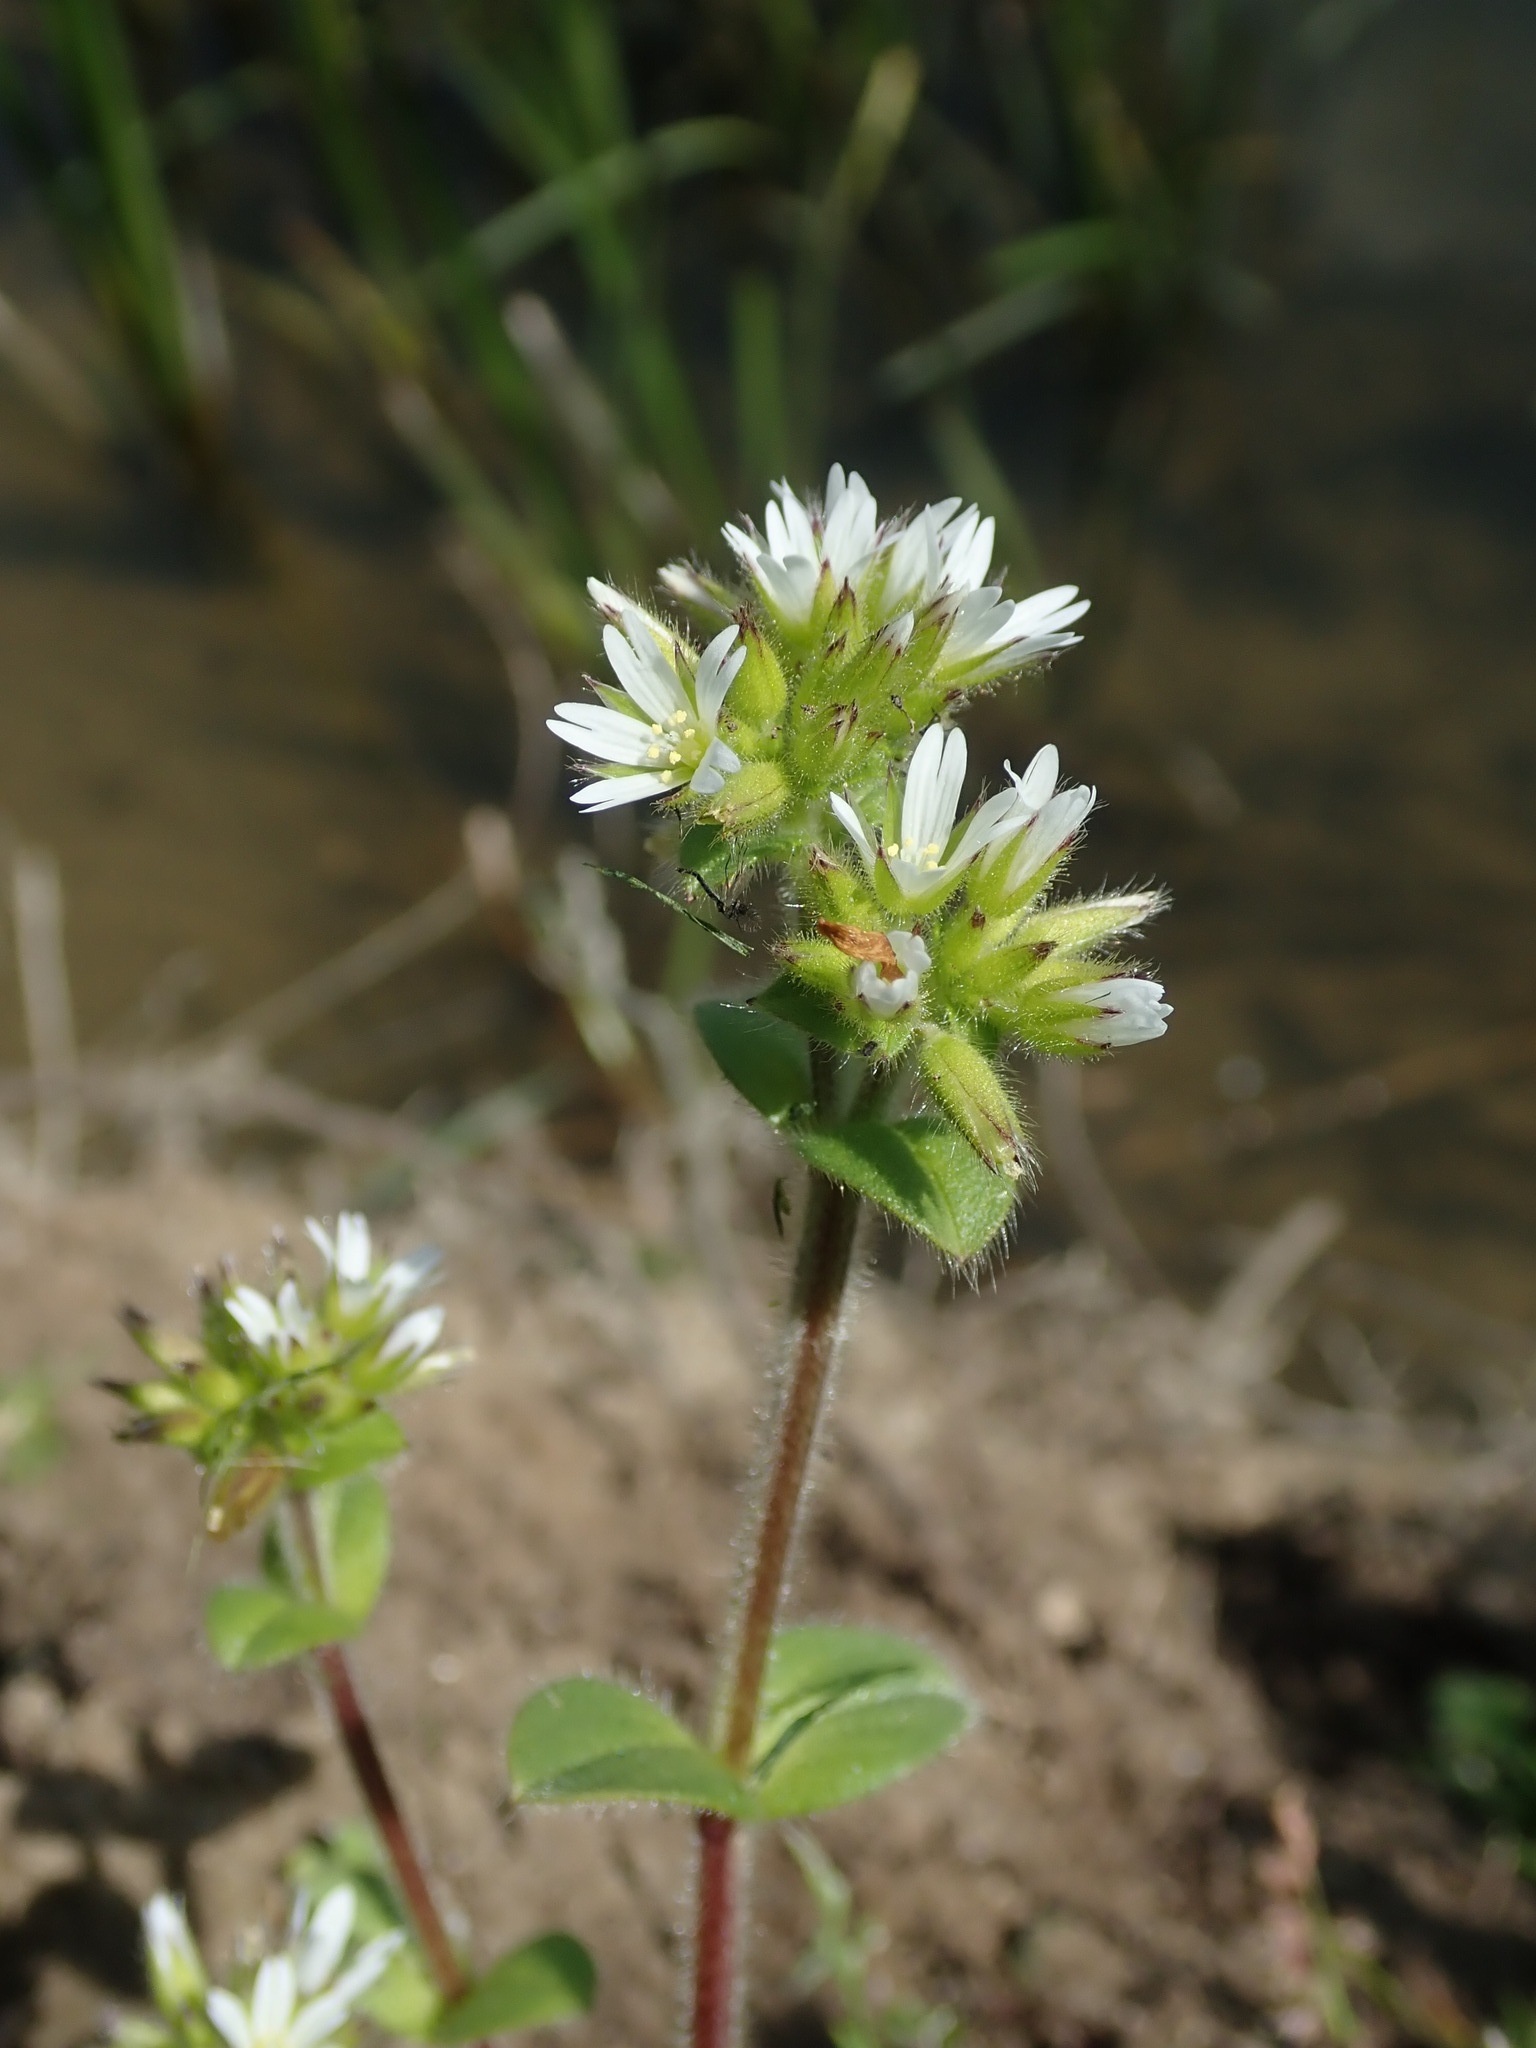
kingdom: Plantae
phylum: Tracheophyta
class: Magnoliopsida
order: Caryophyllales
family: Caryophyllaceae
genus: Cerastium
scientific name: Cerastium glomeratum
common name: Sticky chickweed
